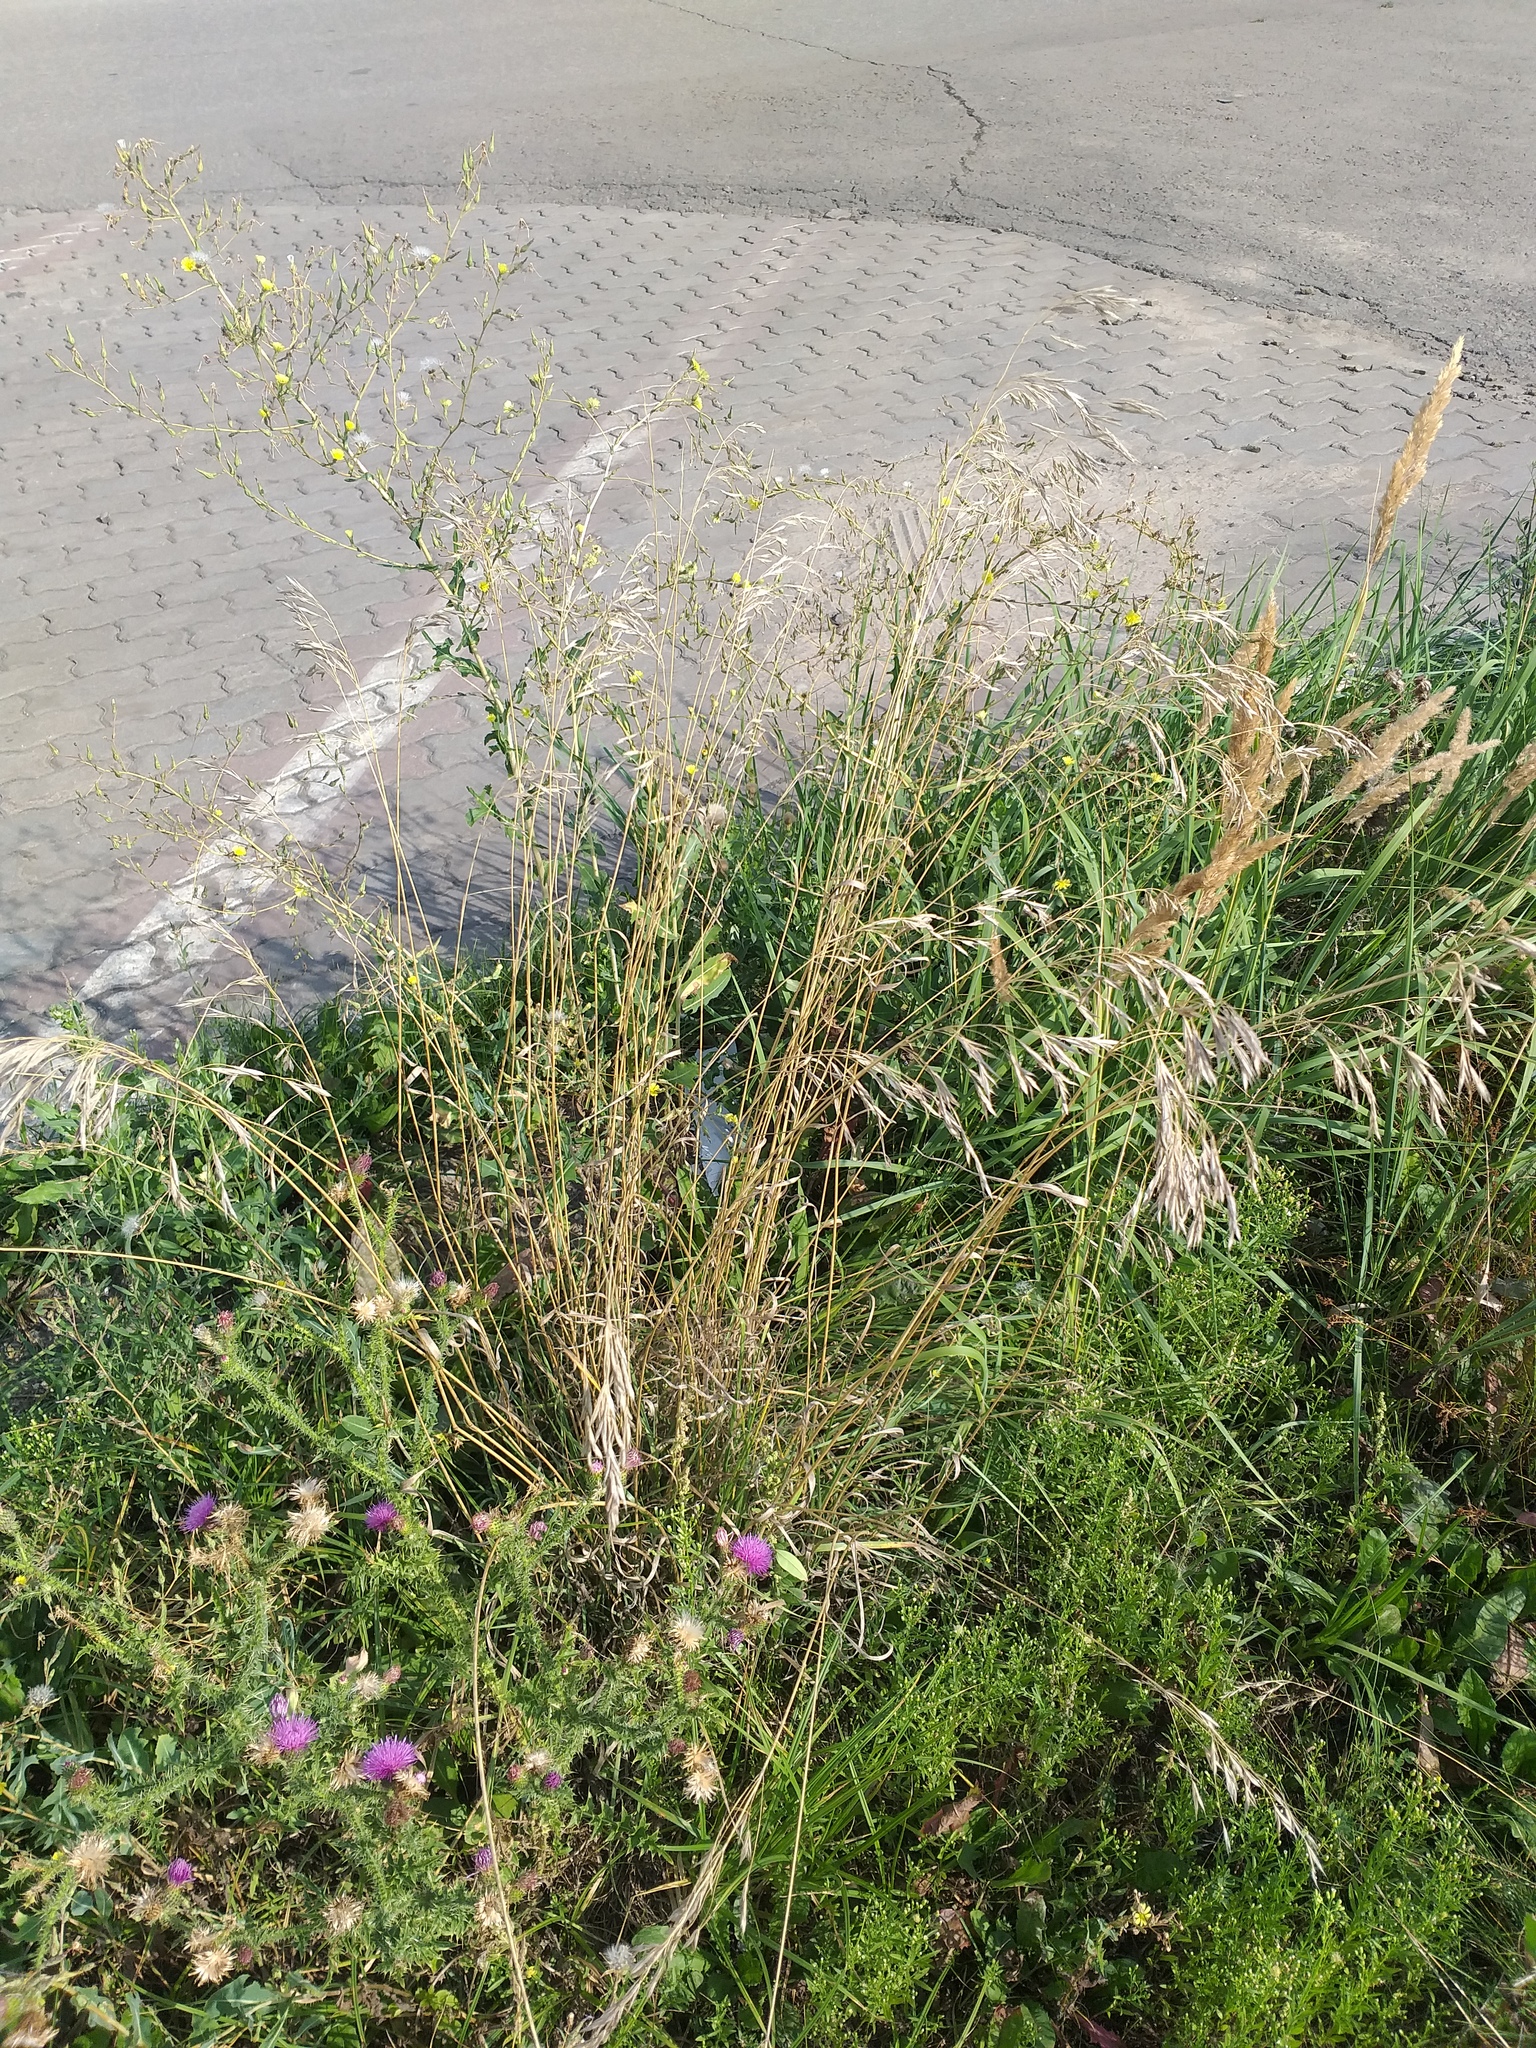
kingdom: Plantae
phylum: Tracheophyta
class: Liliopsida
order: Poales
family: Poaceae
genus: Lolium
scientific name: Lolium arundinaceum
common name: Reed fescue
